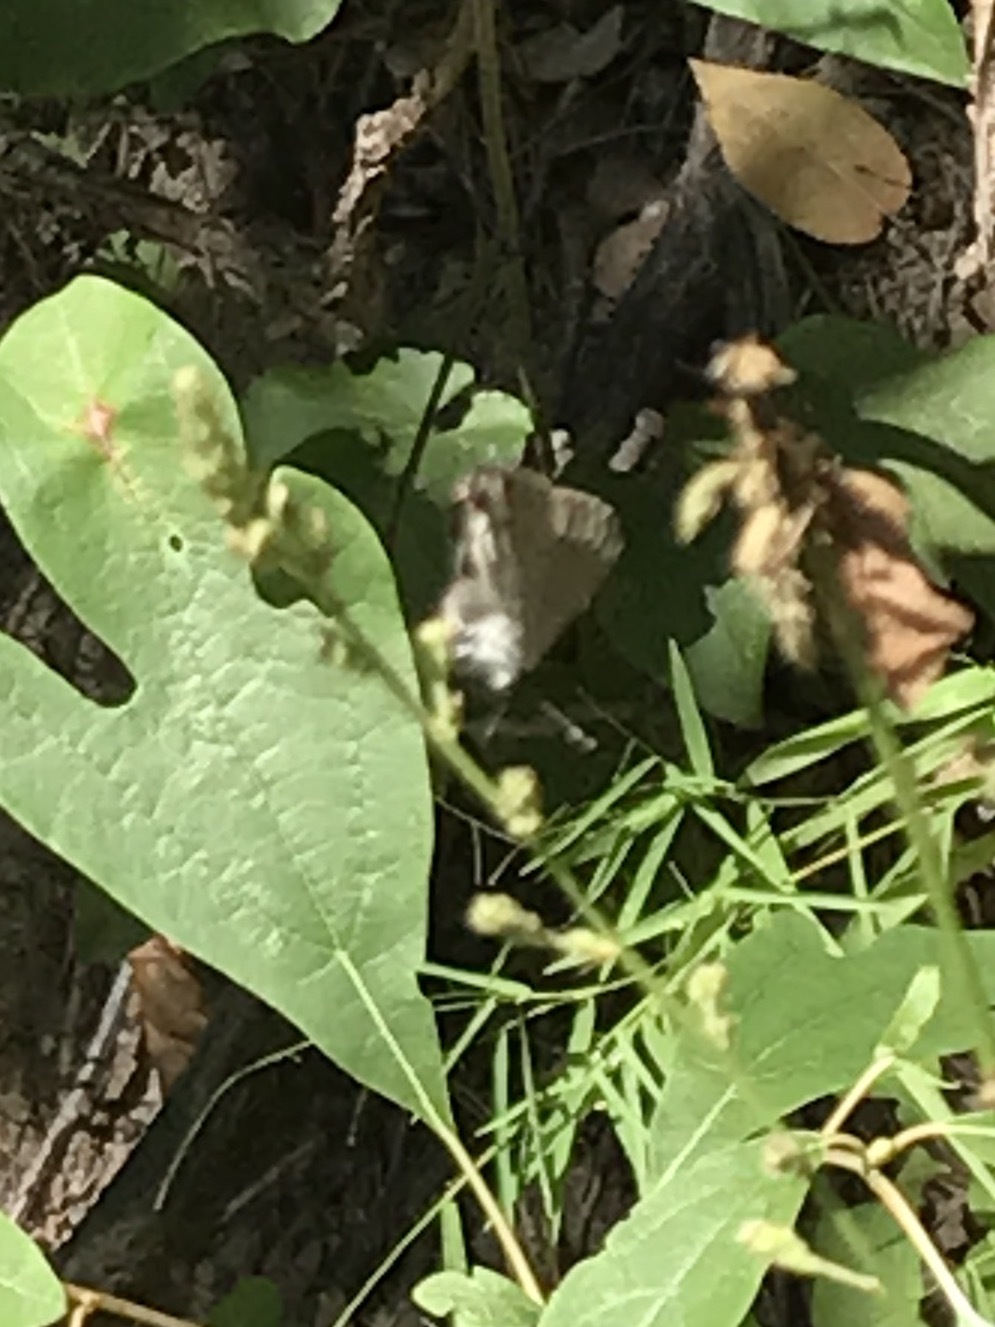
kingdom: Animalia
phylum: Arthropoda
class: Insecta
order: Lepidoptera
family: Lycaenidae
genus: Strymon
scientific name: Strymon melinus
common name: Gray hairstreak
